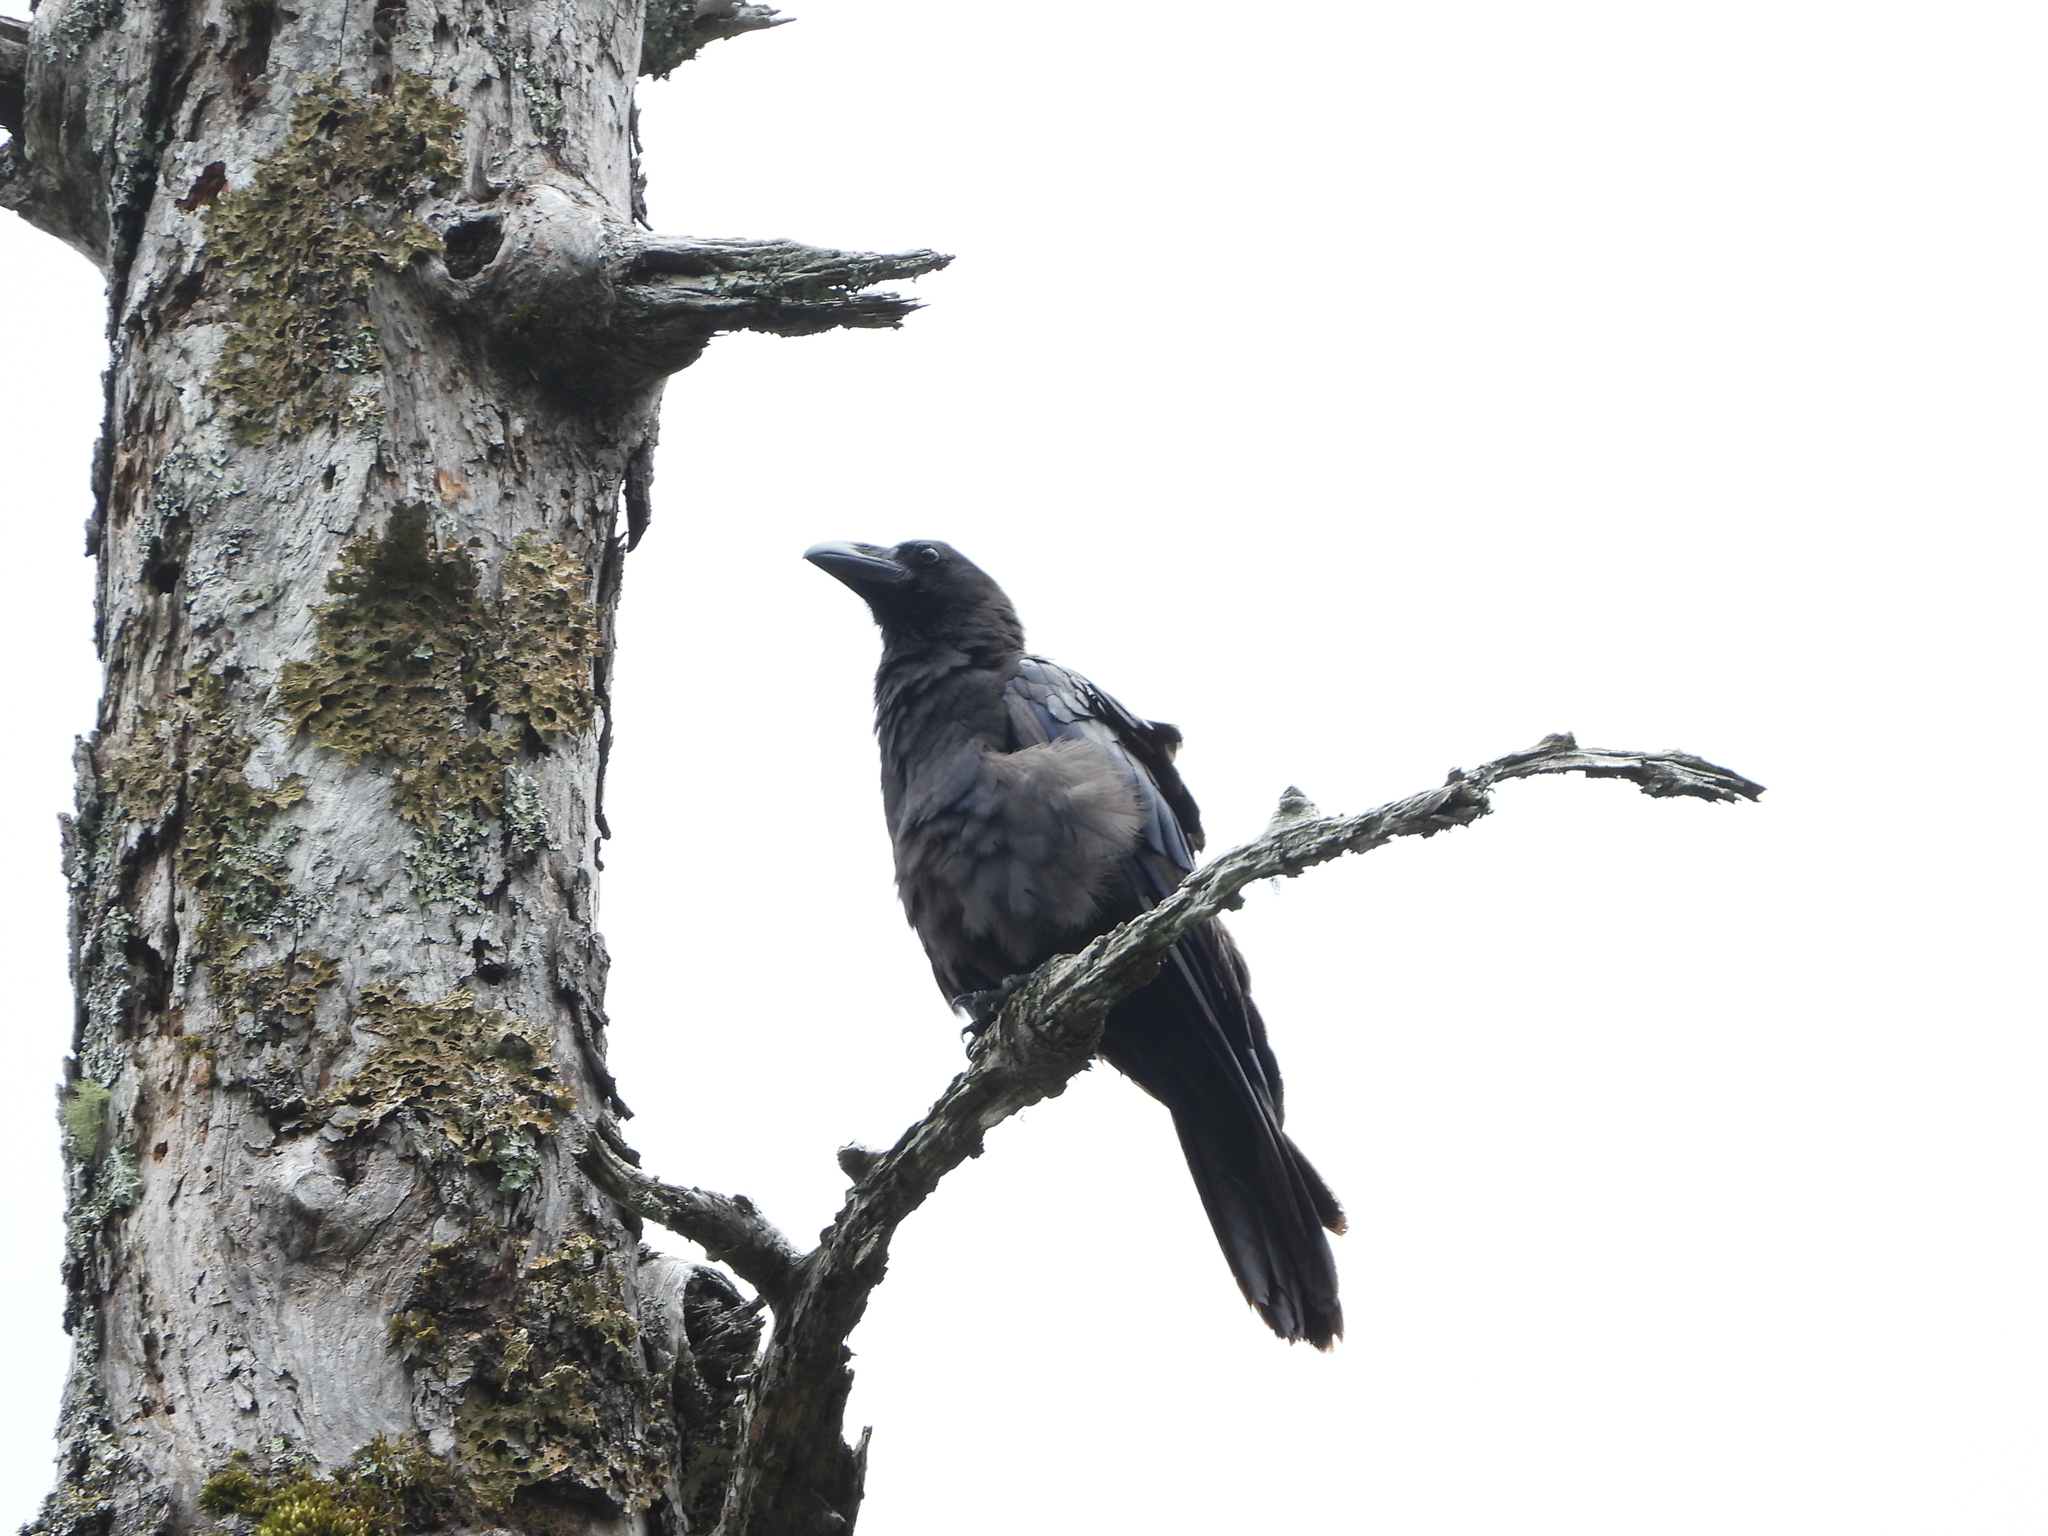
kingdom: Animalia
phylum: Chordata
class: Aves
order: Passeriformes
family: Corvidae
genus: Corvus
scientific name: Corvus macrorhynchos
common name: Large-billed crow
